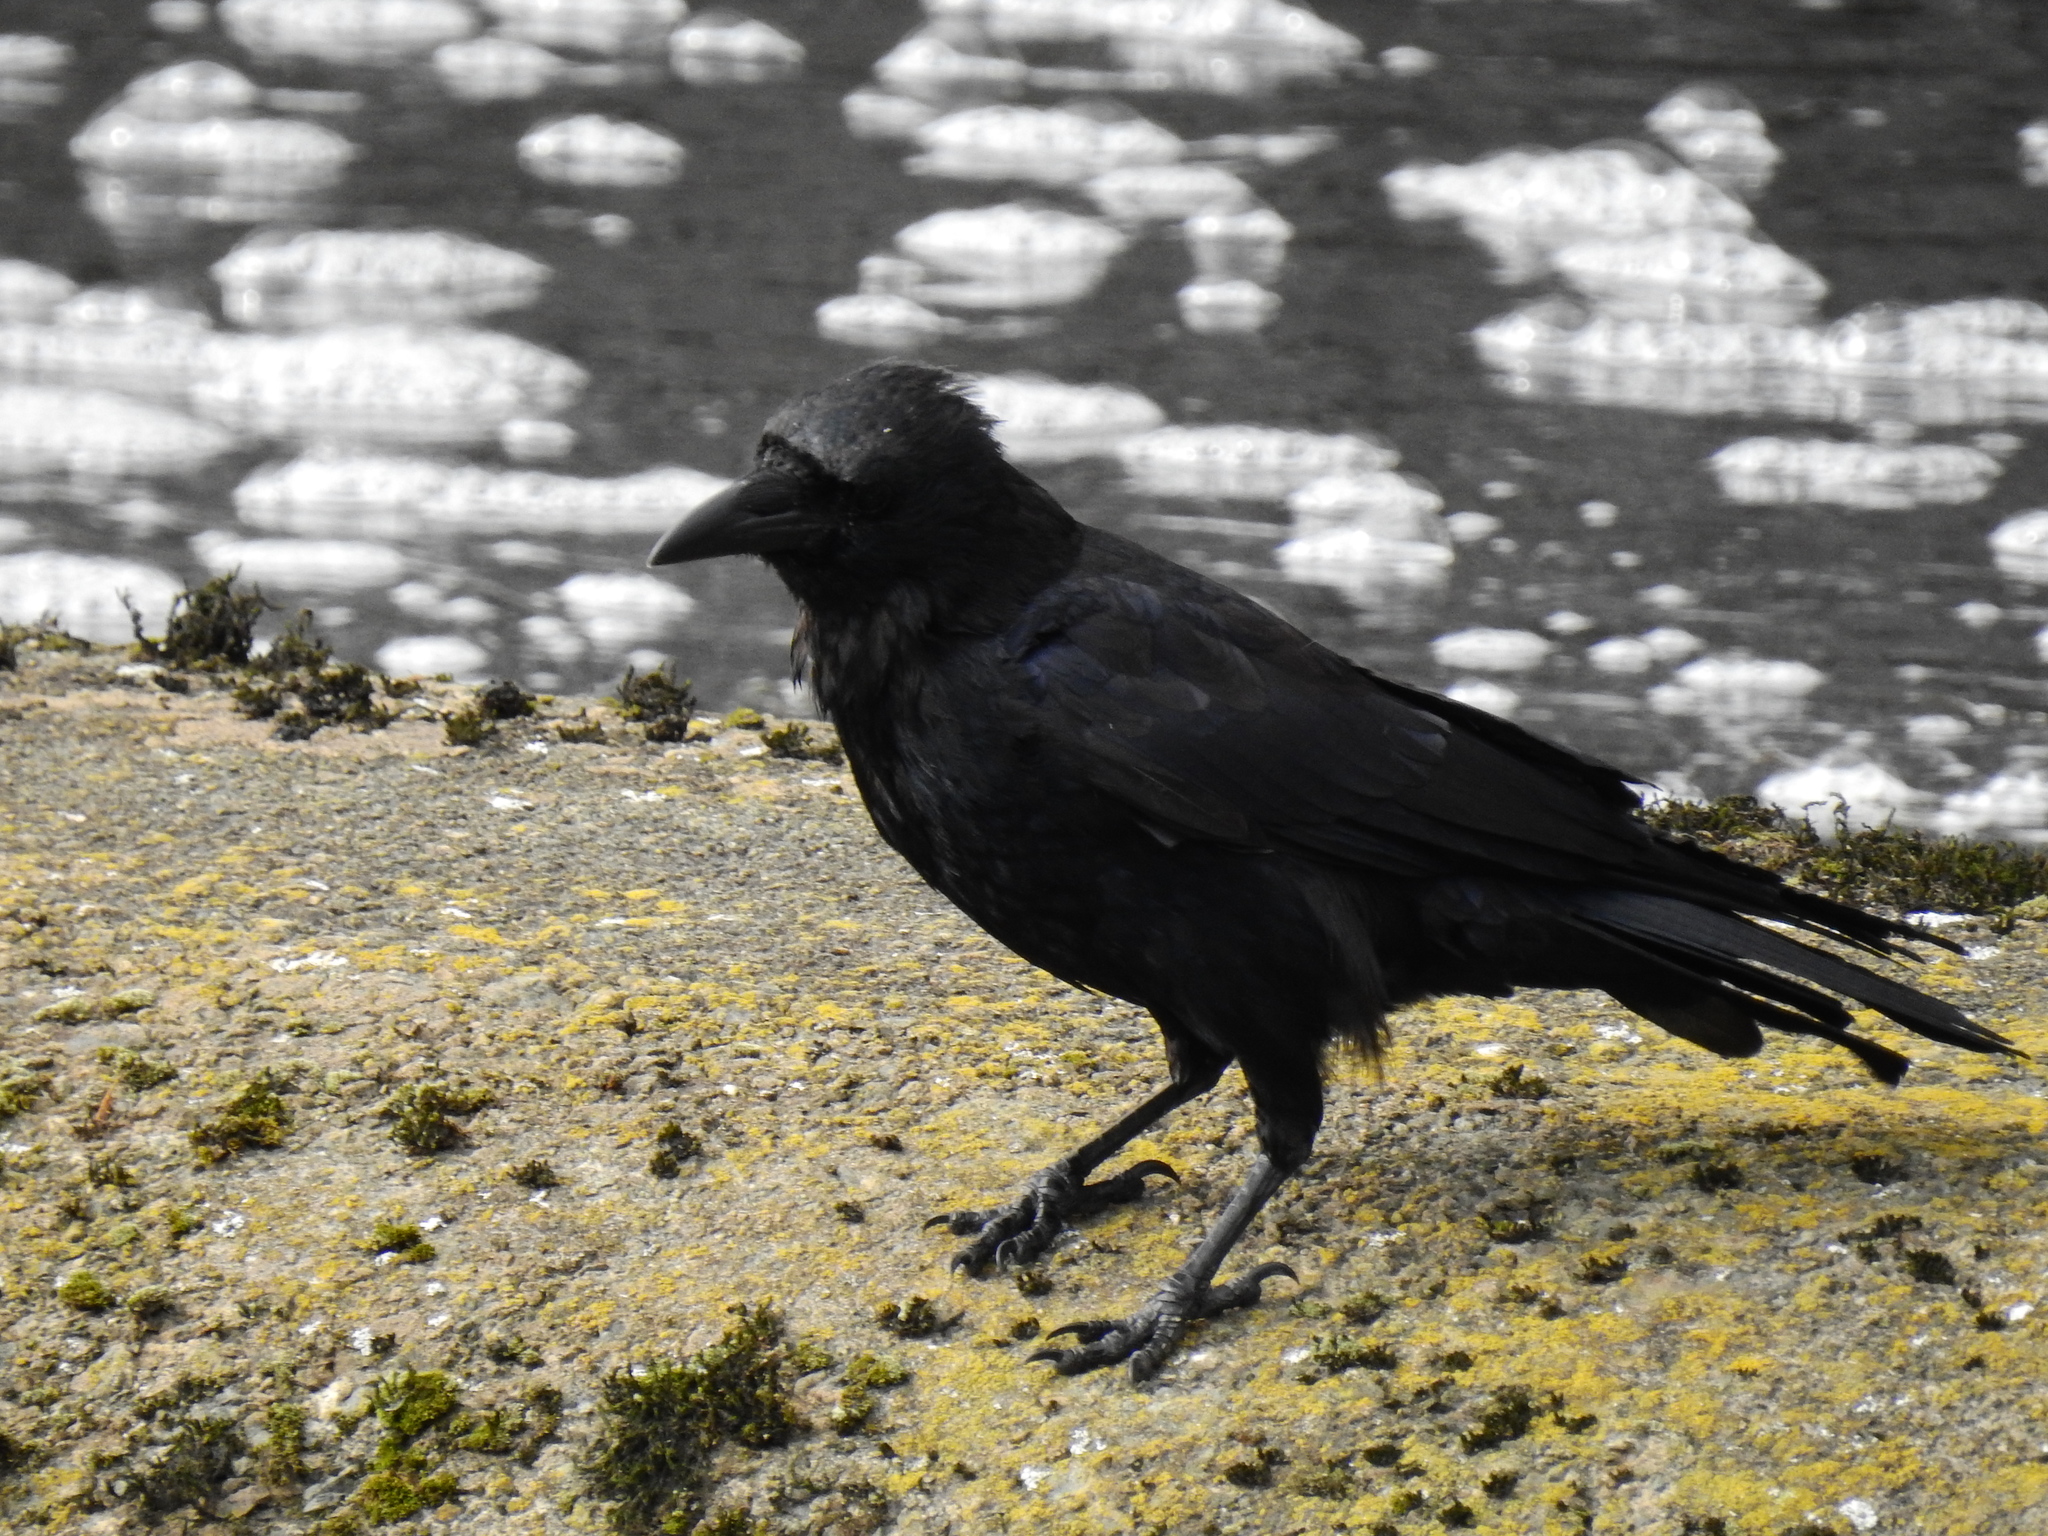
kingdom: Animalia
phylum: Chordata
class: Aves
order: Passeriformes
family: Corvidae
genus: Corvus
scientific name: Corvus corone
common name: Carrion crow
